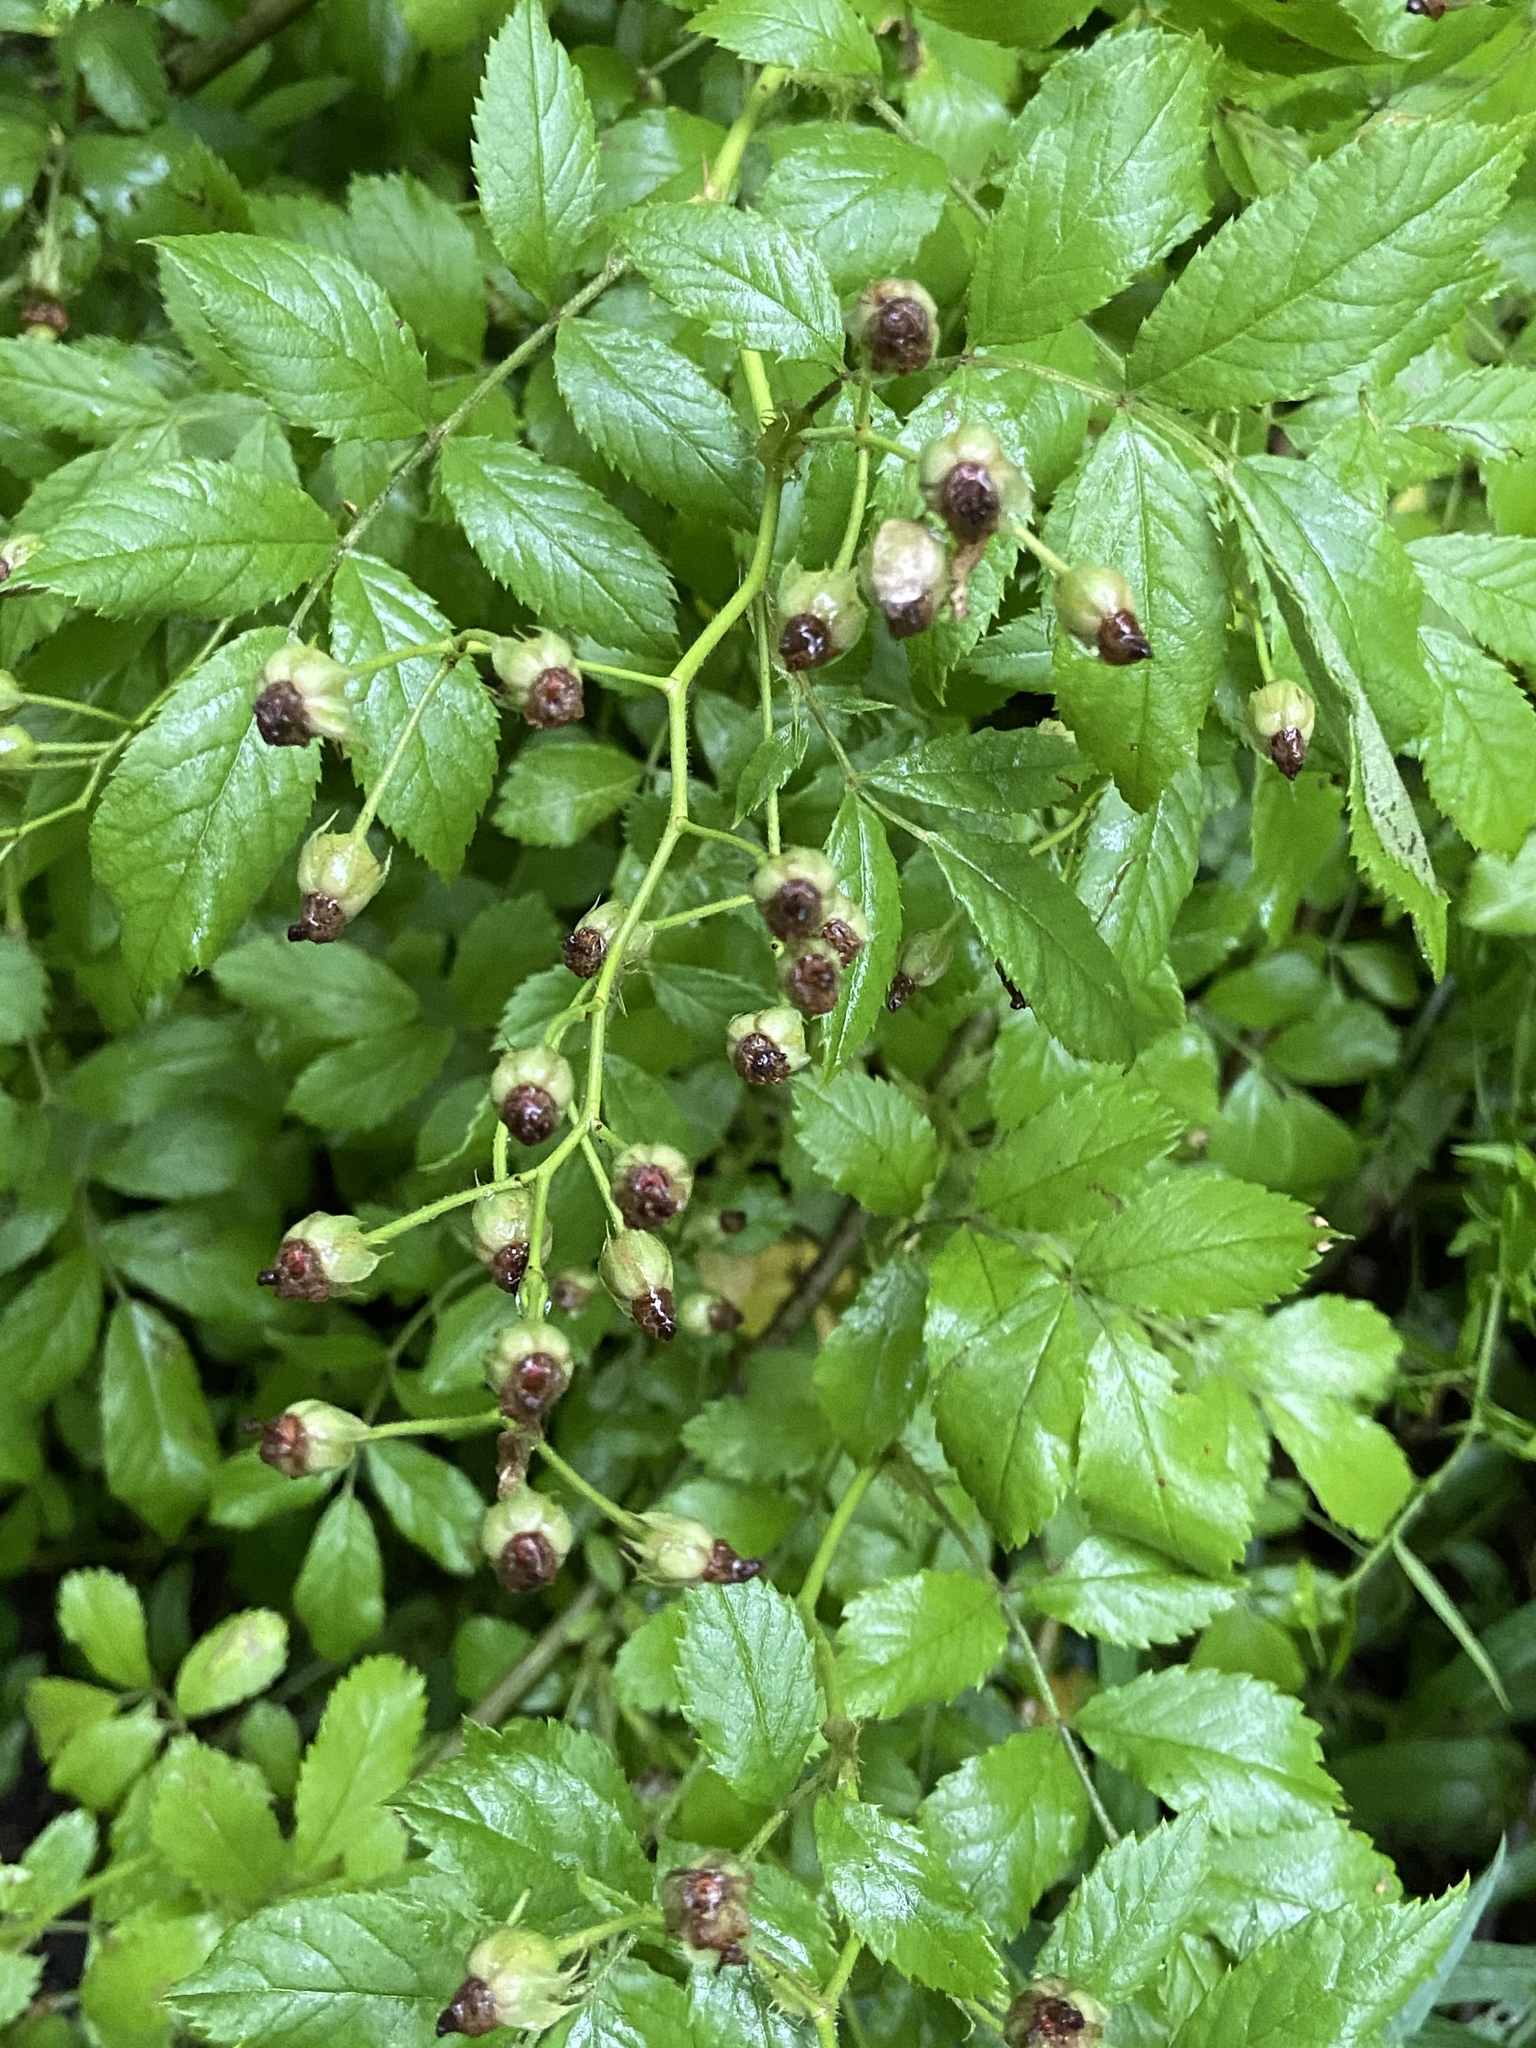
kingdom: Plantae
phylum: Tracheophyta
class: Magnoliopsida
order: Rosales
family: Rosaceae
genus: Rosa
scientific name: Rosa multiflora
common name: Multiflora rose
